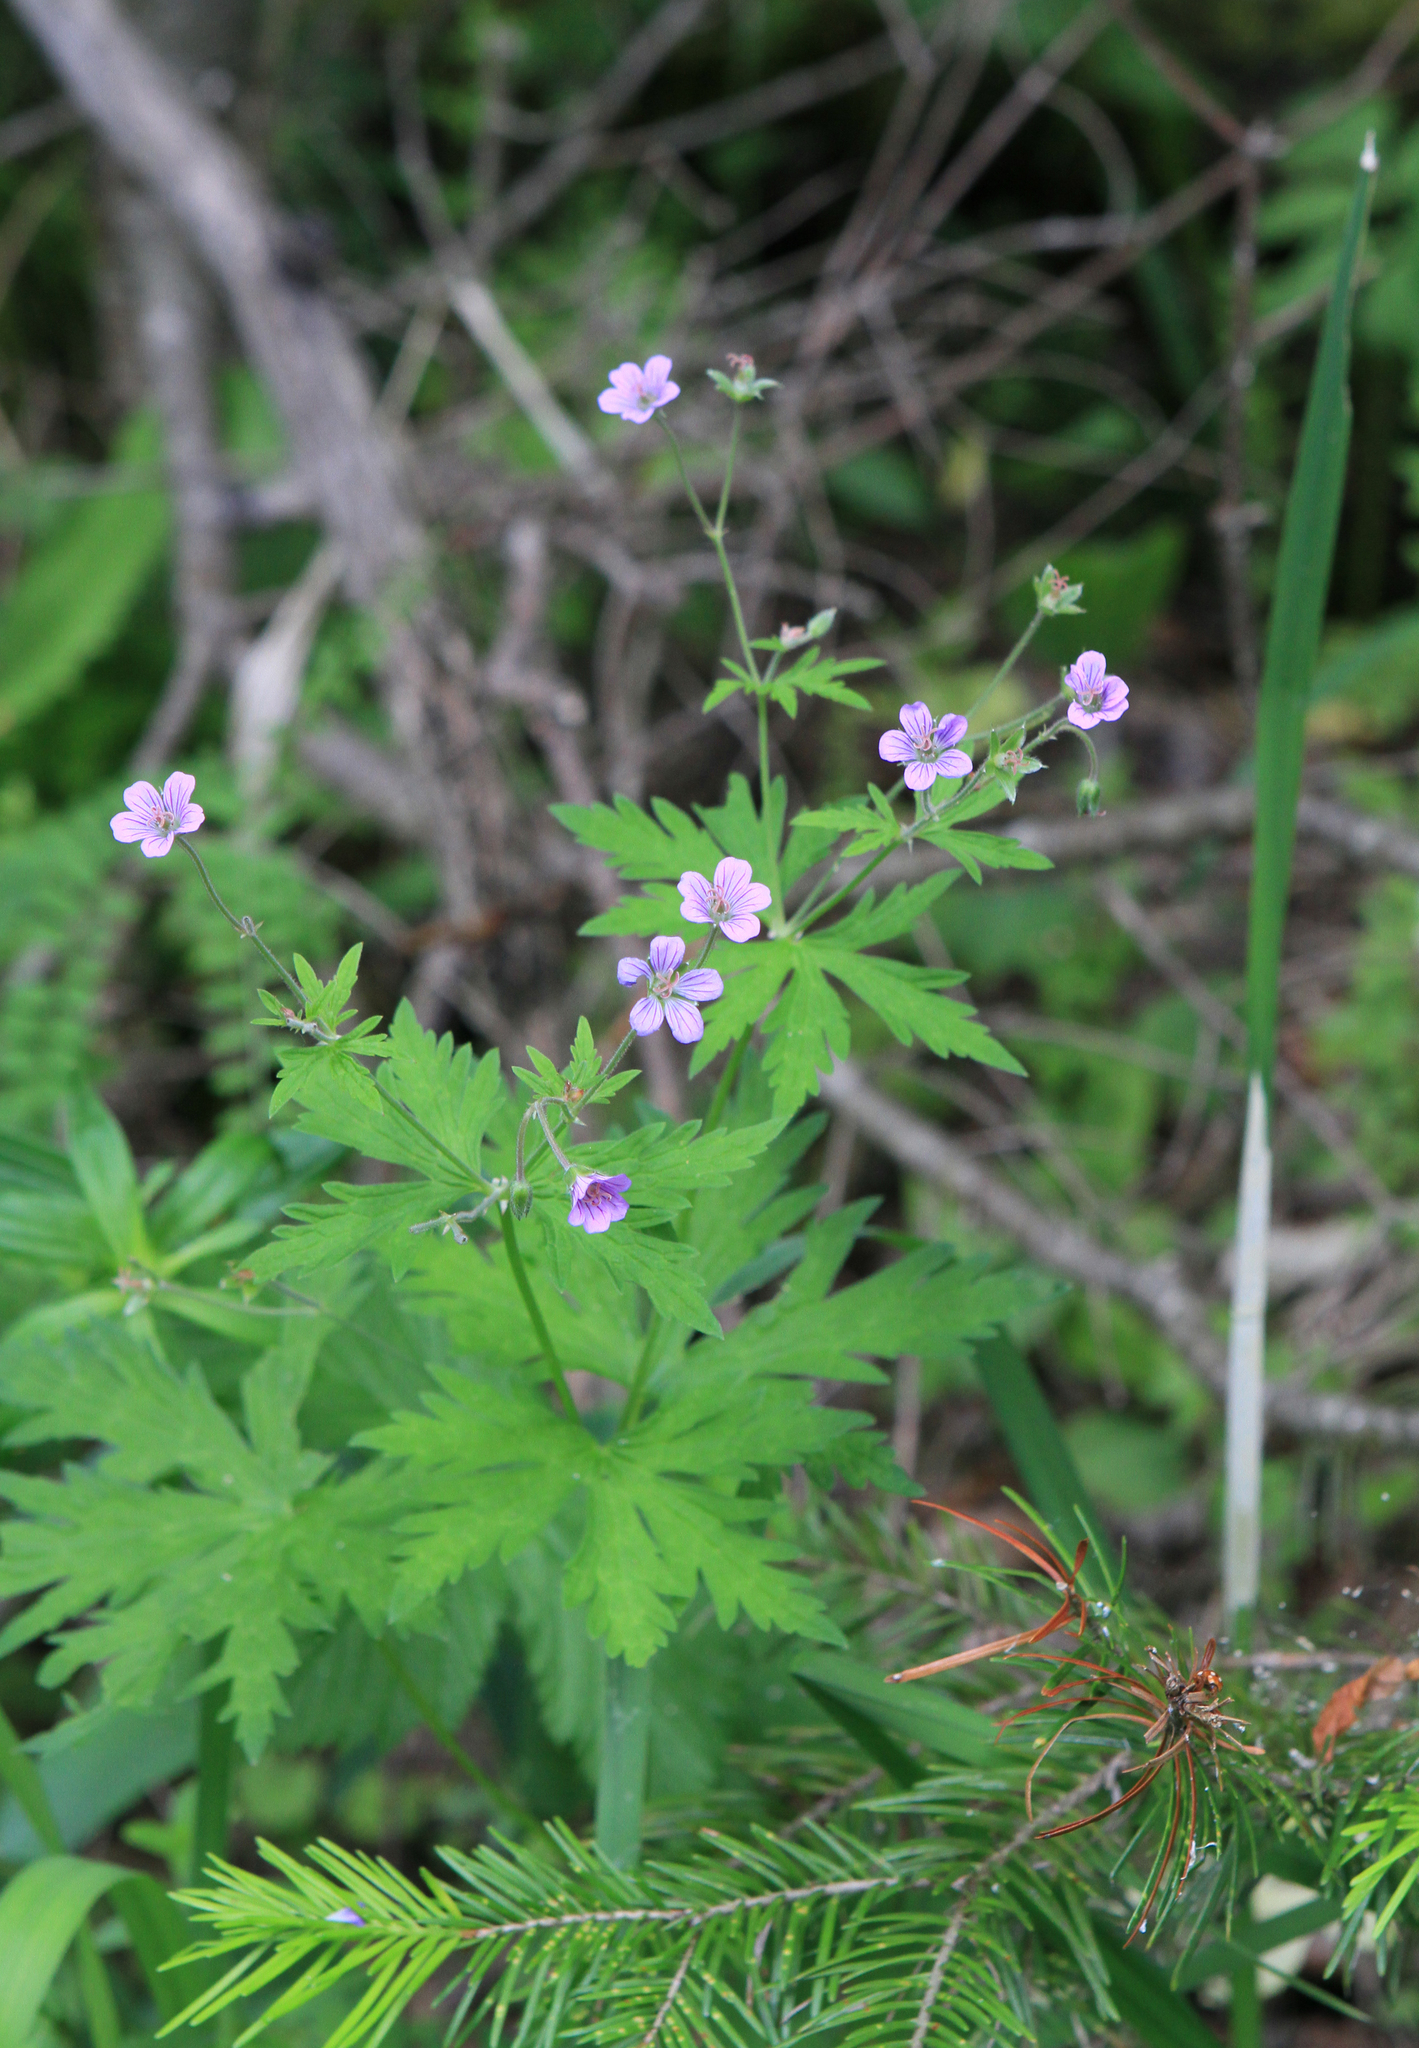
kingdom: Plantae
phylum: Tracheophyta
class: Magnoliopsida
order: Geraniales
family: Geraniaceae
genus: Geranium
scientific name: Geranium pseudosibiricum
